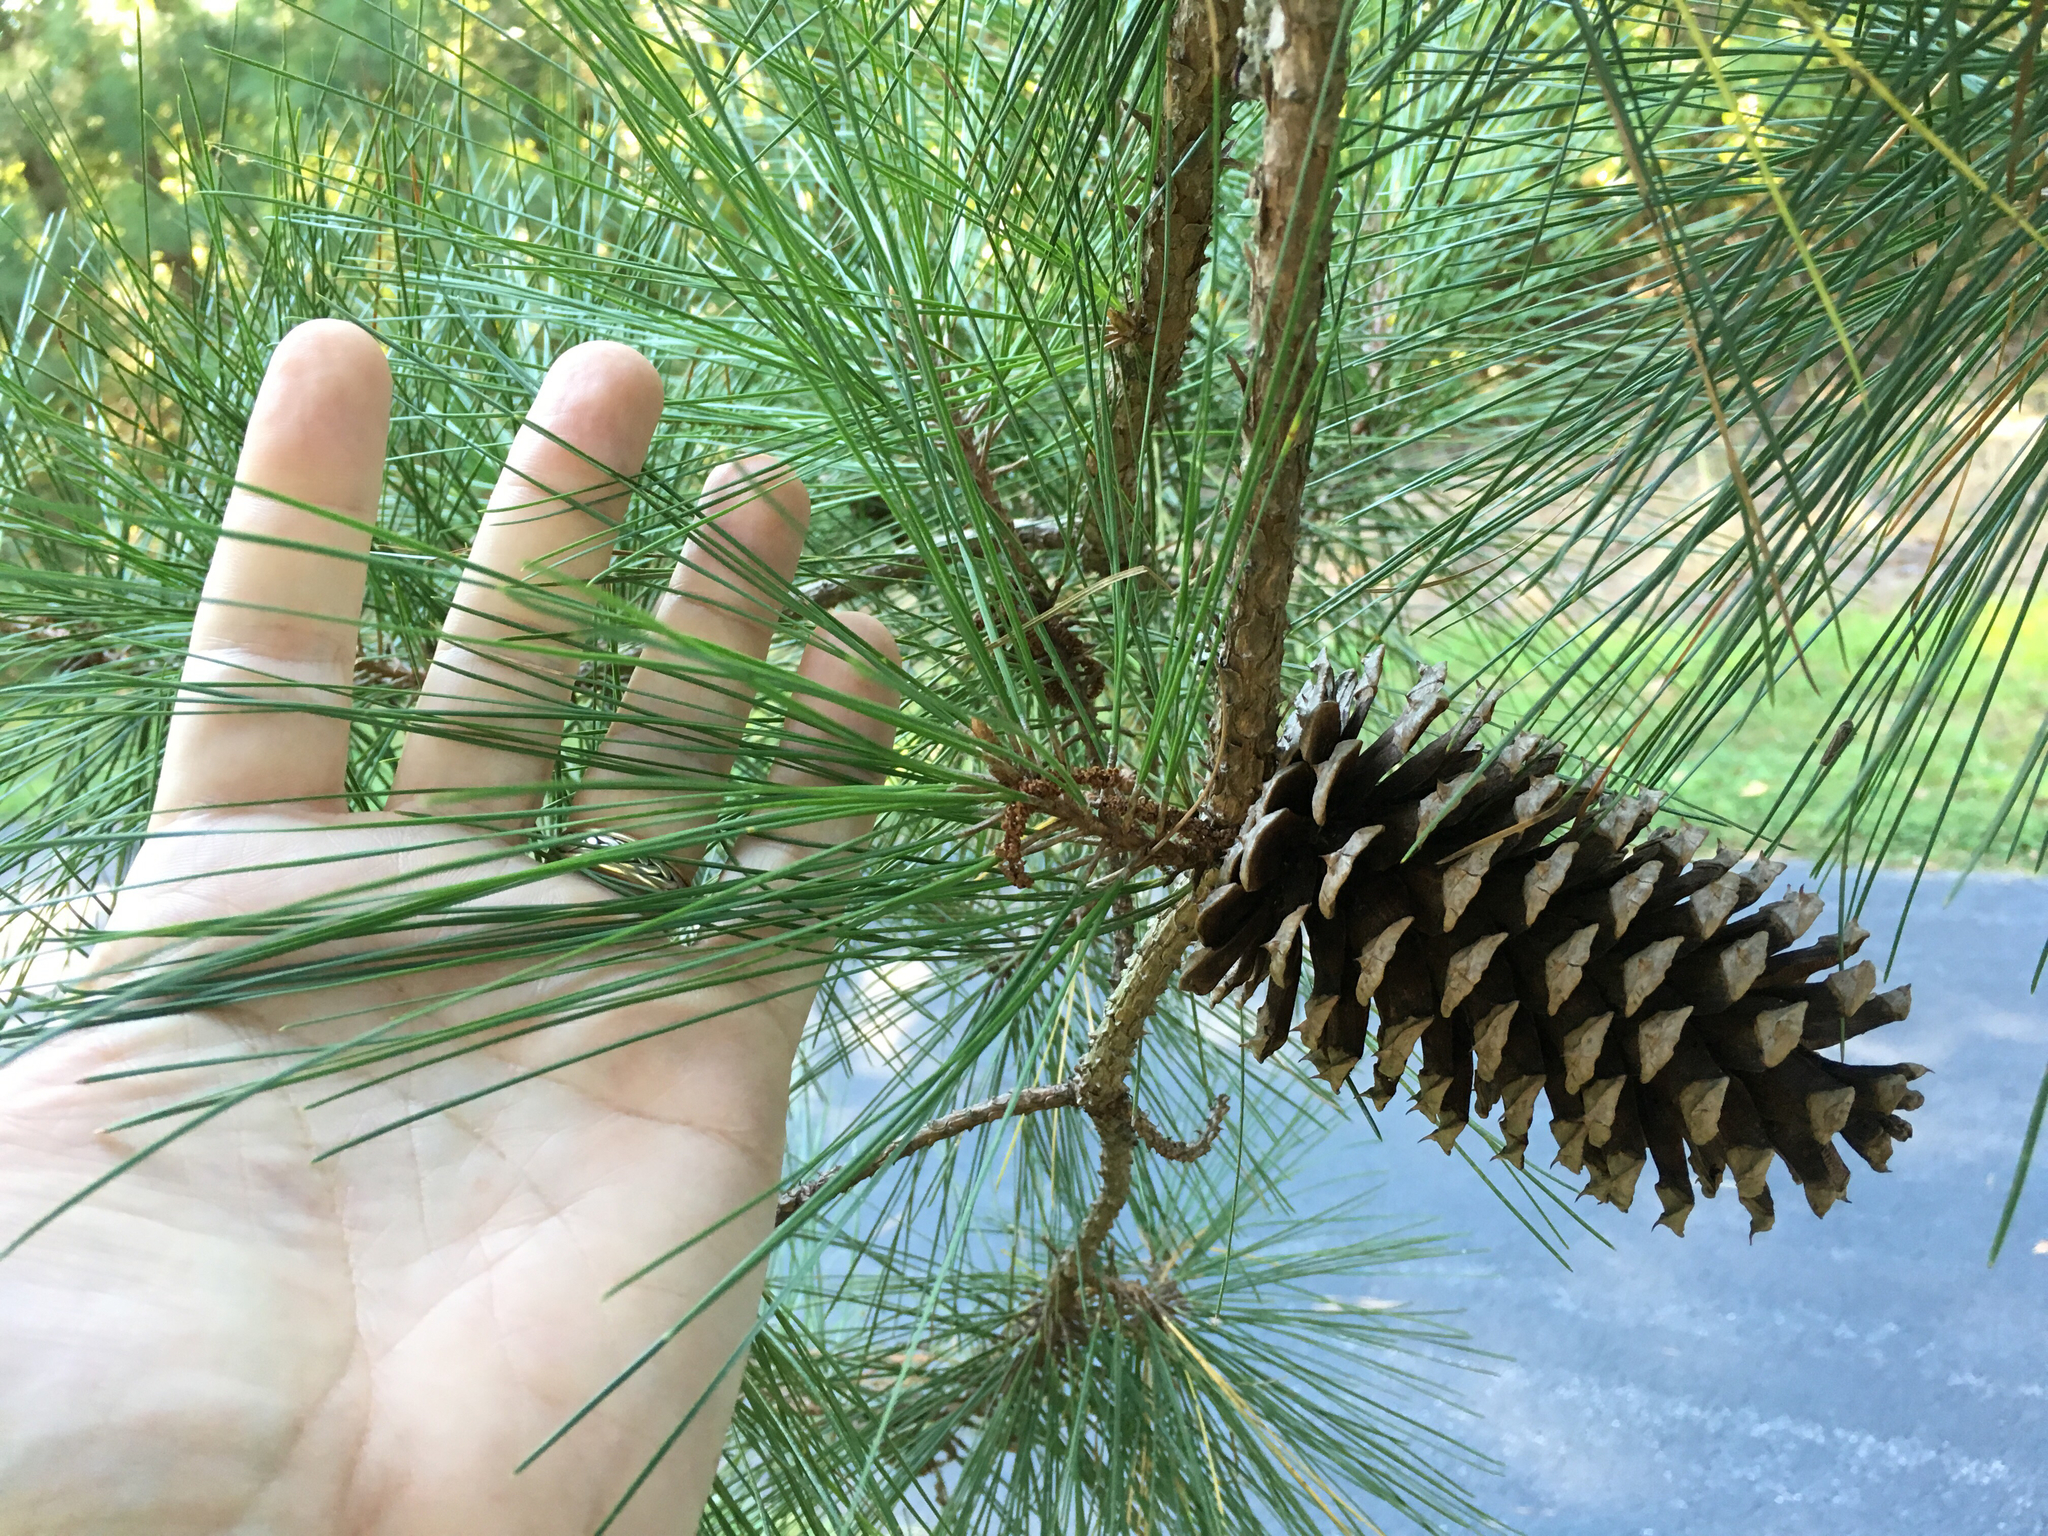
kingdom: Plantae
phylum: Tracheophyta
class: Pinopsida
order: Pinales
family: Pinaceae
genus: Pinus
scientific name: Pinus taeda
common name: Loblolly pine
